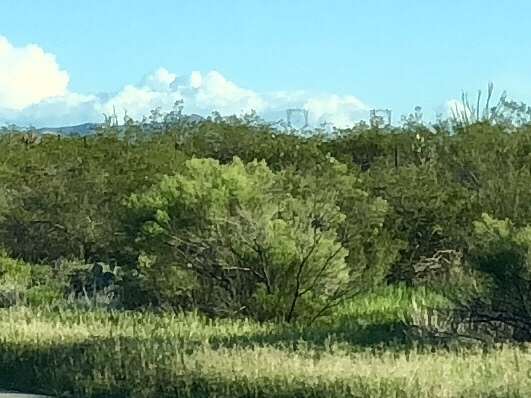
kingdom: Plantae
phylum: Tracheophyta
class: Magnoliopsida
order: Asterales
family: Asteraceae
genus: Baccharis
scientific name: Baccharis sarothroides
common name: Desert-broom
